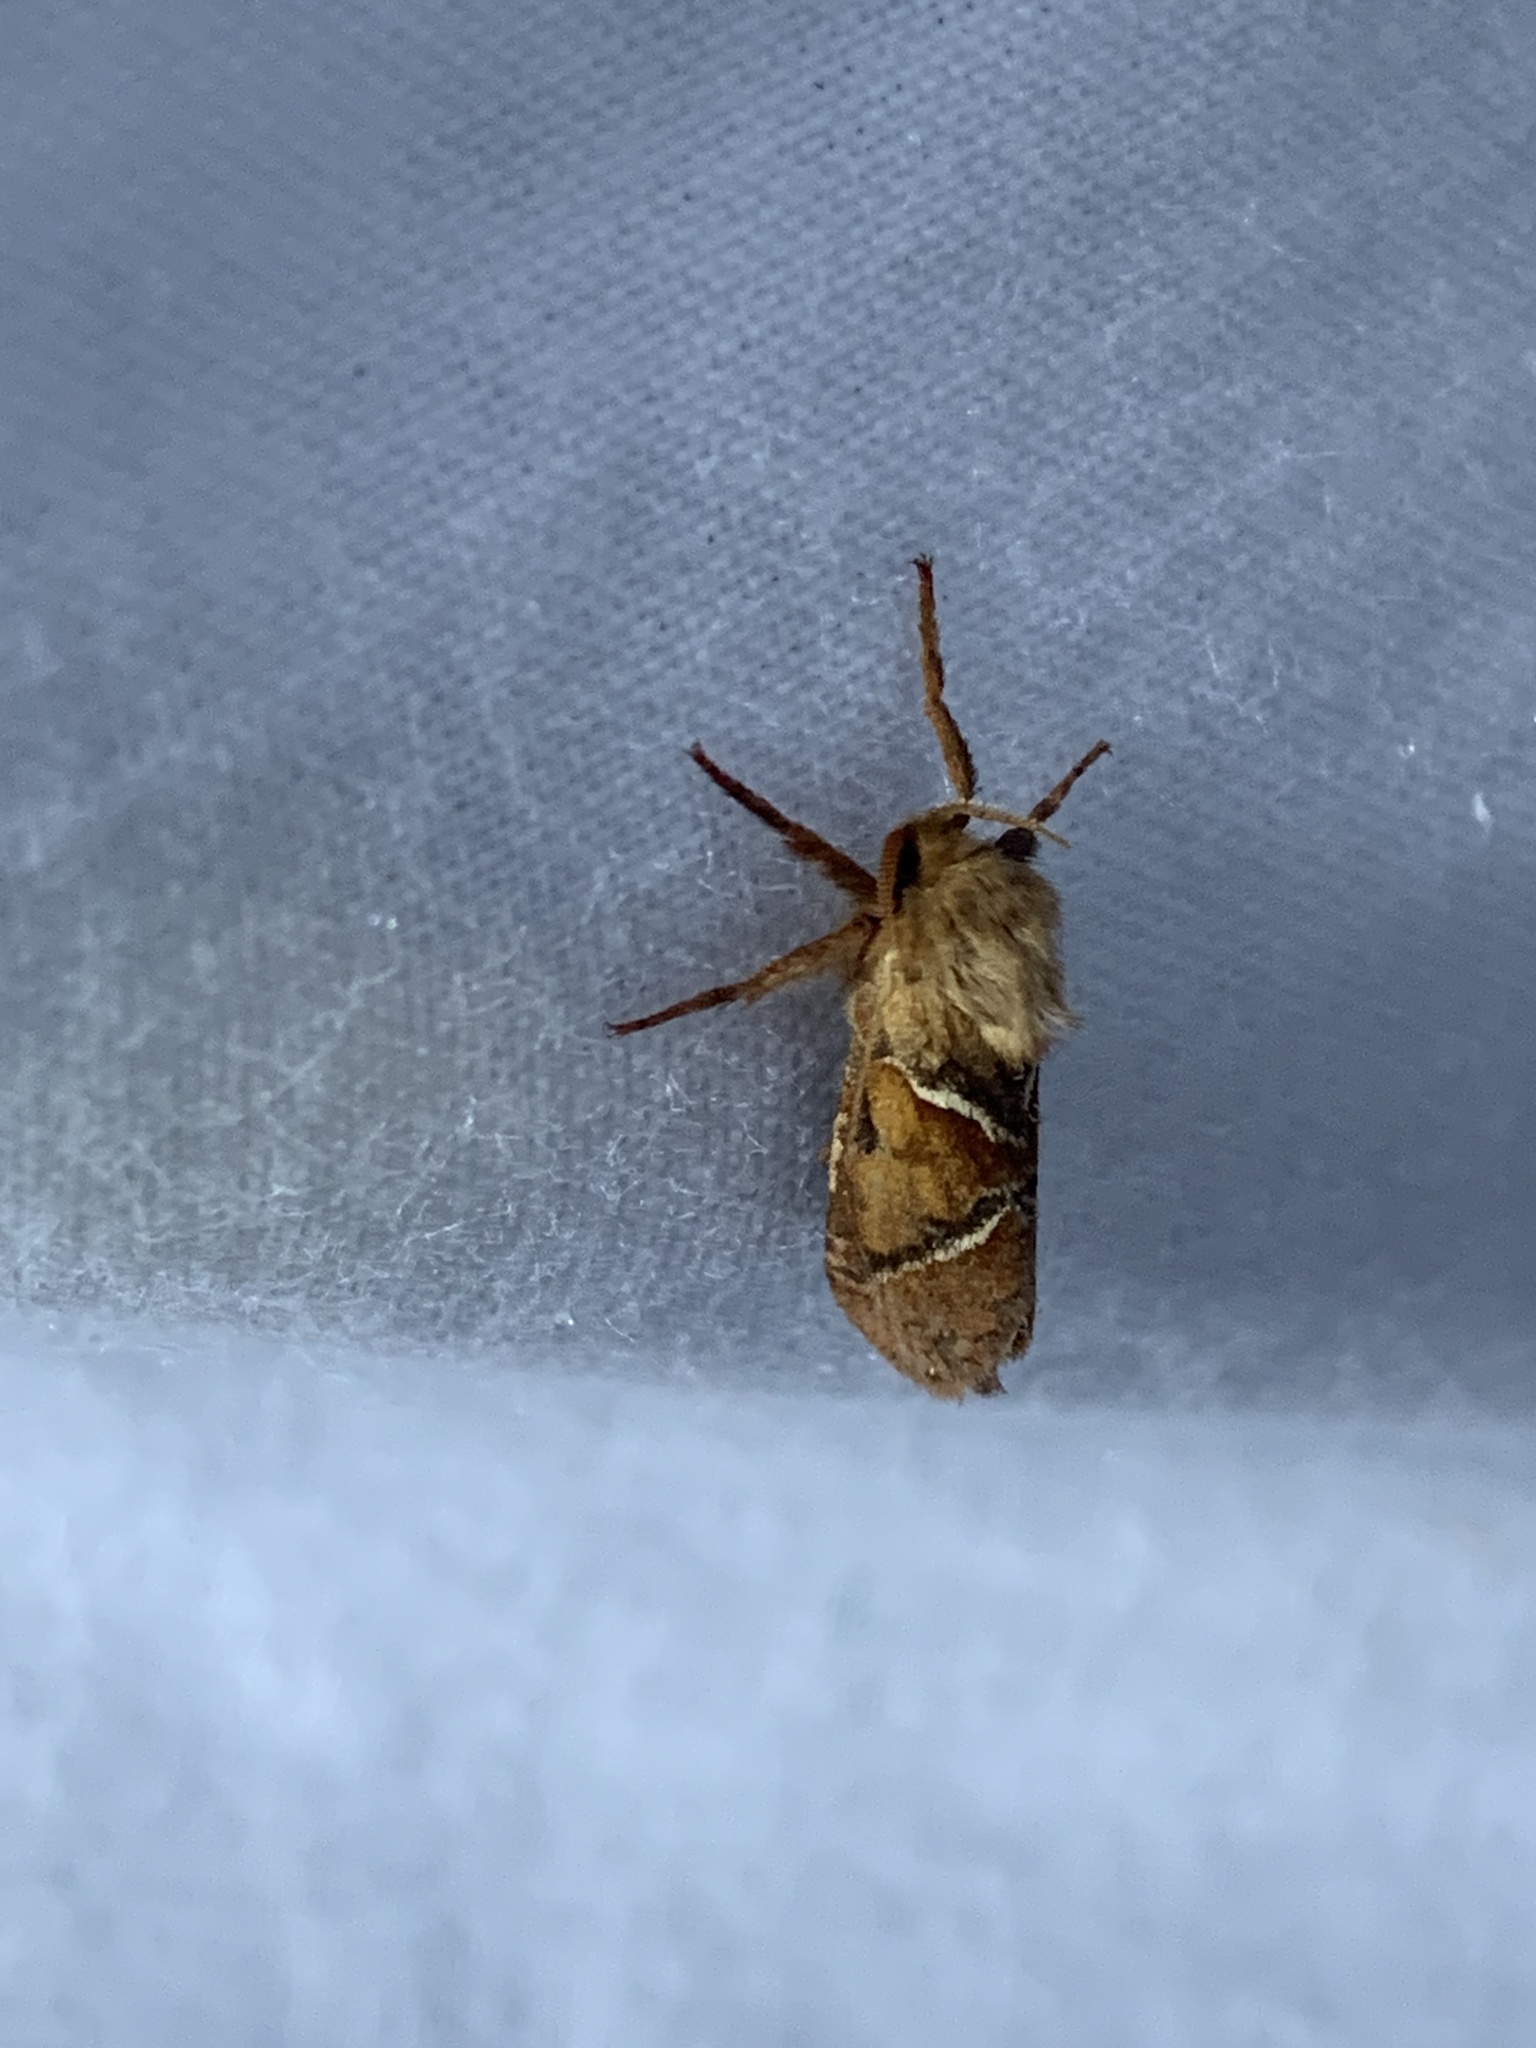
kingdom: Animalia
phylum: Arthropoda
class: Insecta
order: Lepidoptera
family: Hepialidae
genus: Triodia
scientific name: Triodia sylvina
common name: Orange swift
